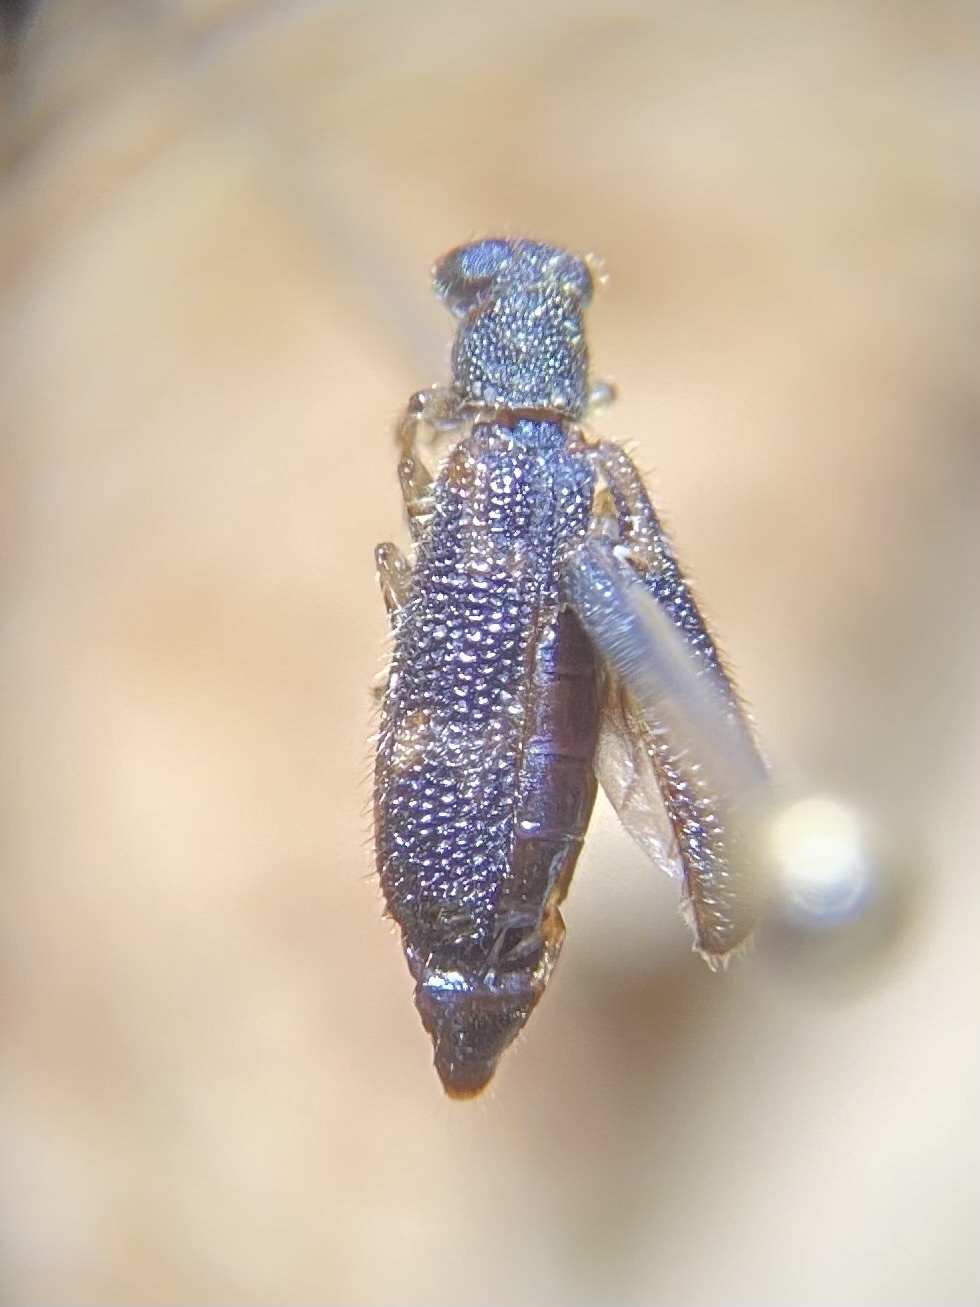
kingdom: Animalia
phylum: Arthropoda
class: Insecta
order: Coleoptera
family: Cleridae
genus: Madoniella
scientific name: Madoniella dislocata
